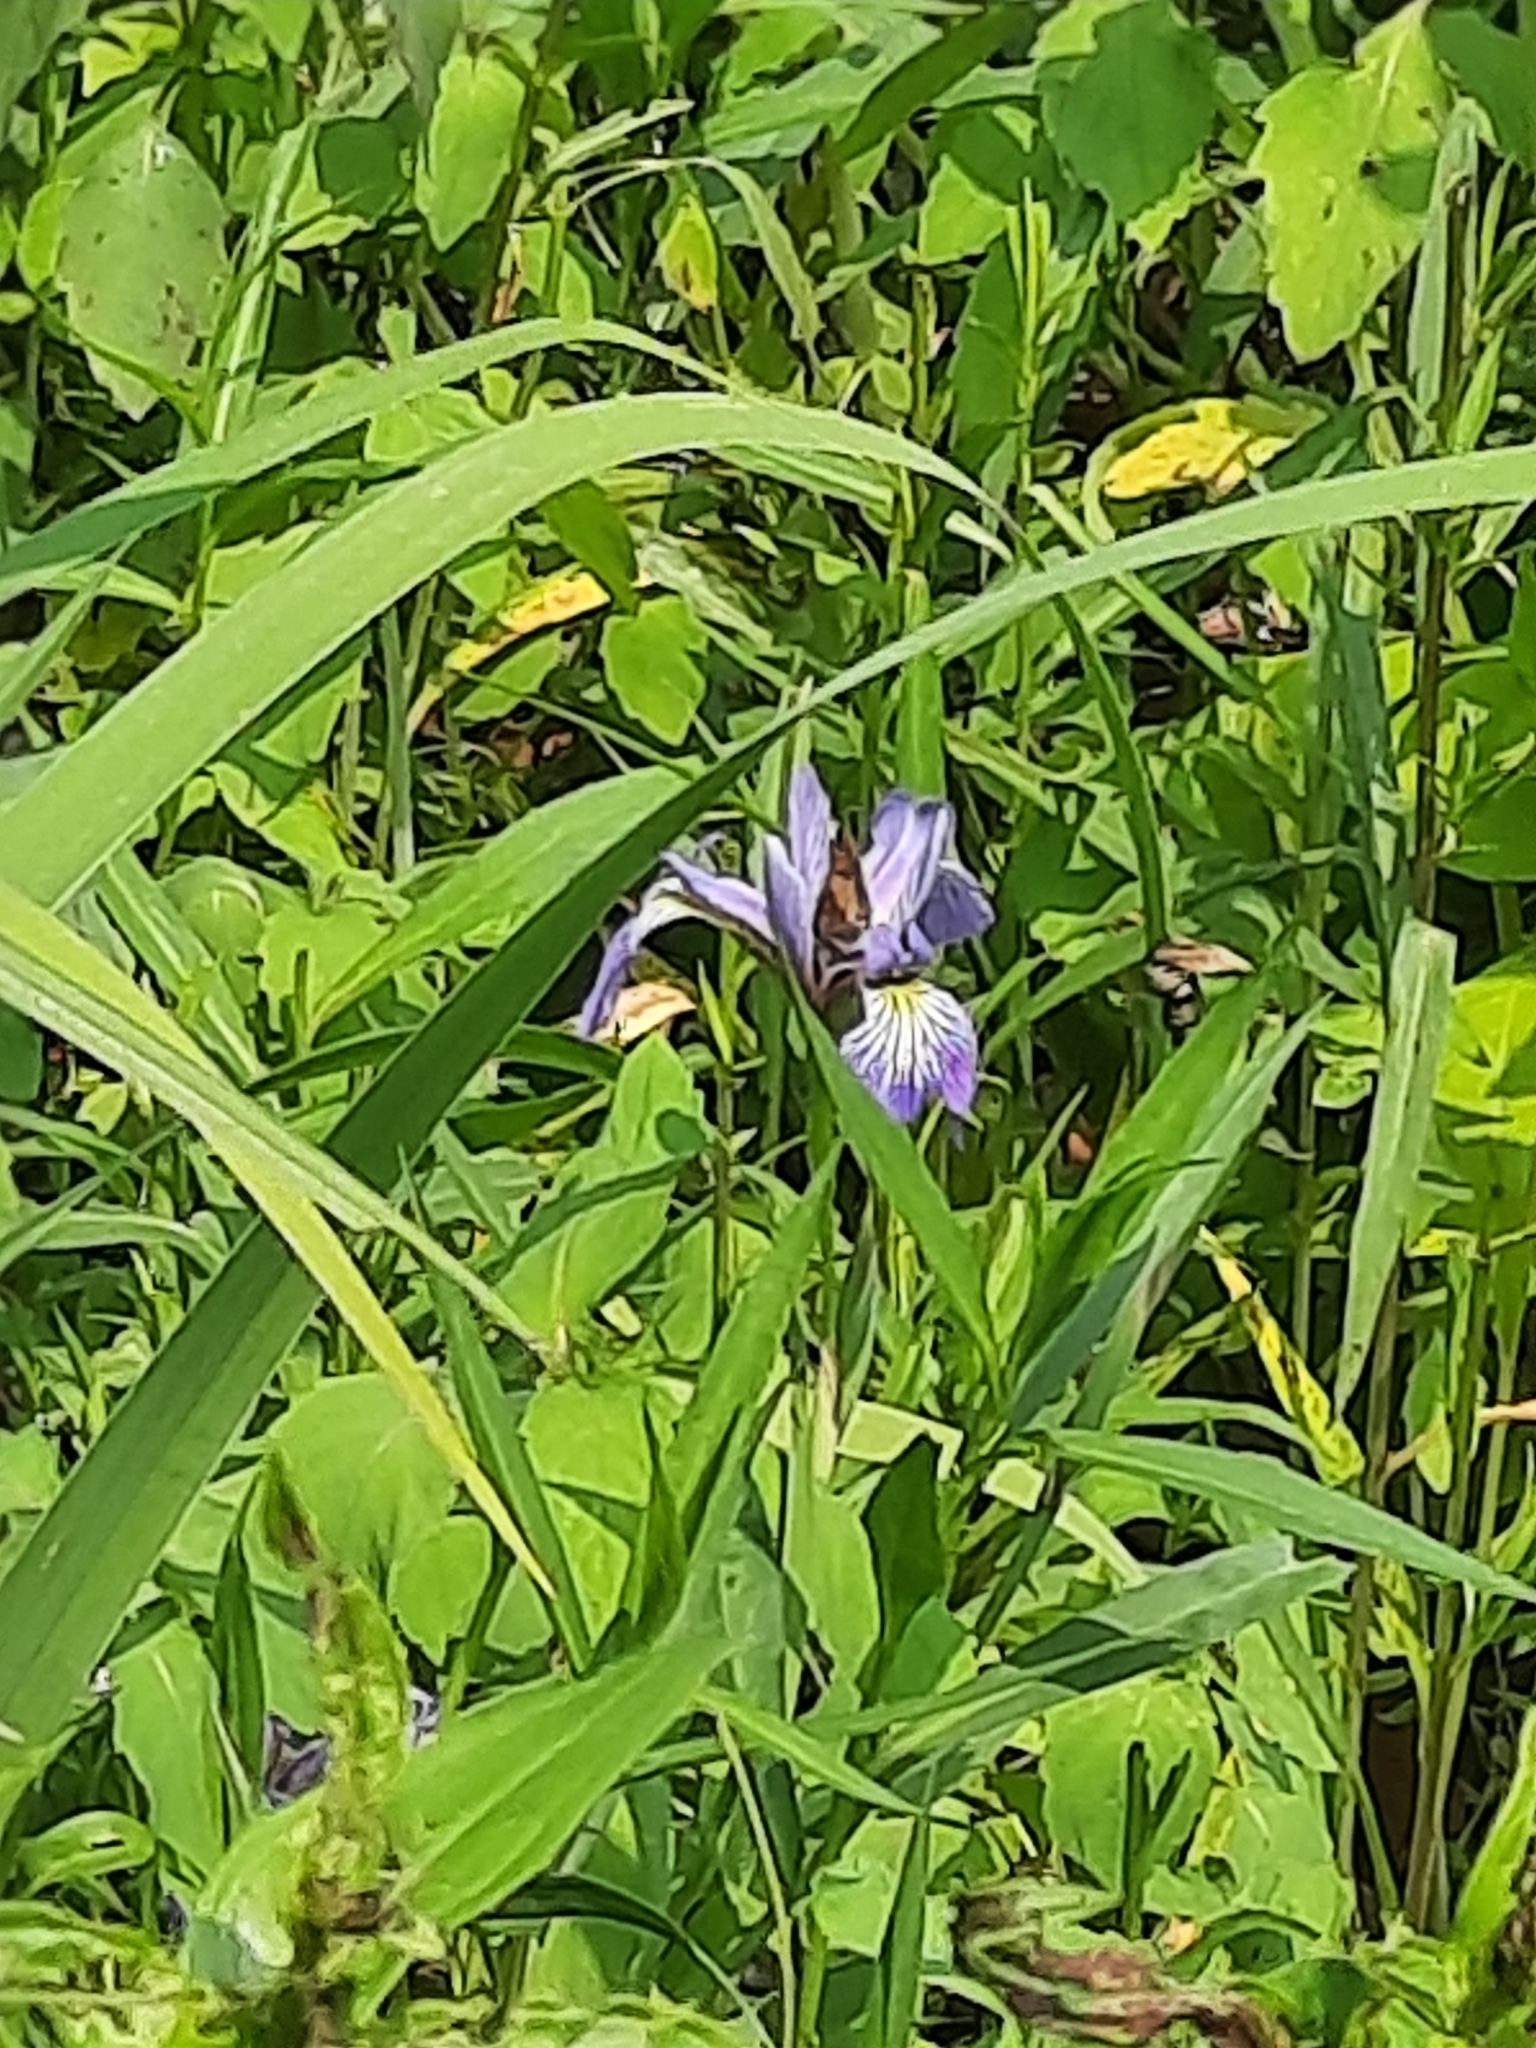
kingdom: Plantae
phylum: Tracheophyta
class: Liliopsida
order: Asparagales
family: Iridaceae
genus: Iris
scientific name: Iris versicolor
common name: Purple iris
